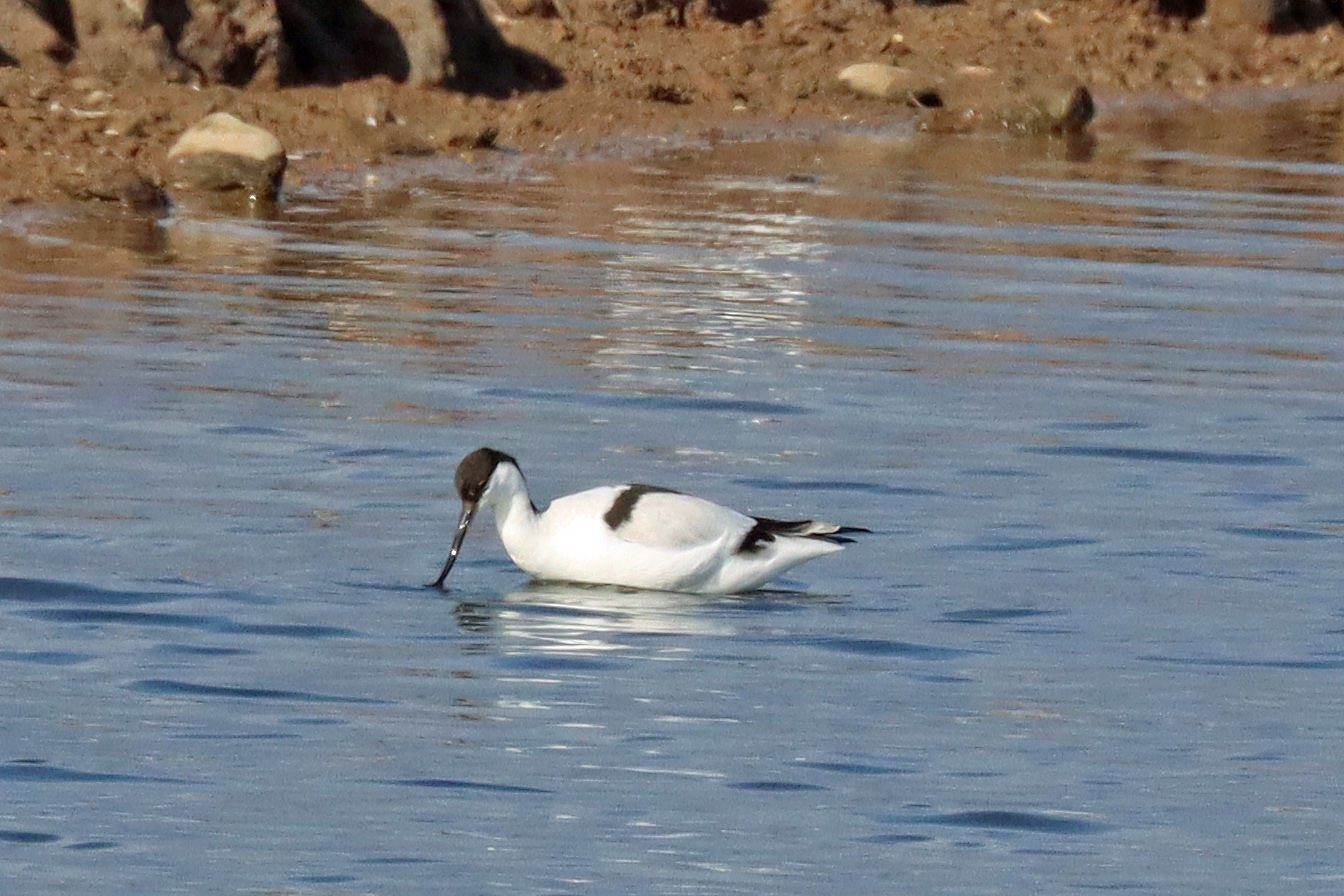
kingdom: Animalia
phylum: Chordata
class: Aves
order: Charadriiformes
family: Recurvirostridae
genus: Recurvirostra
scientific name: Recurvirostra avosetta
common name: Pied avocet
